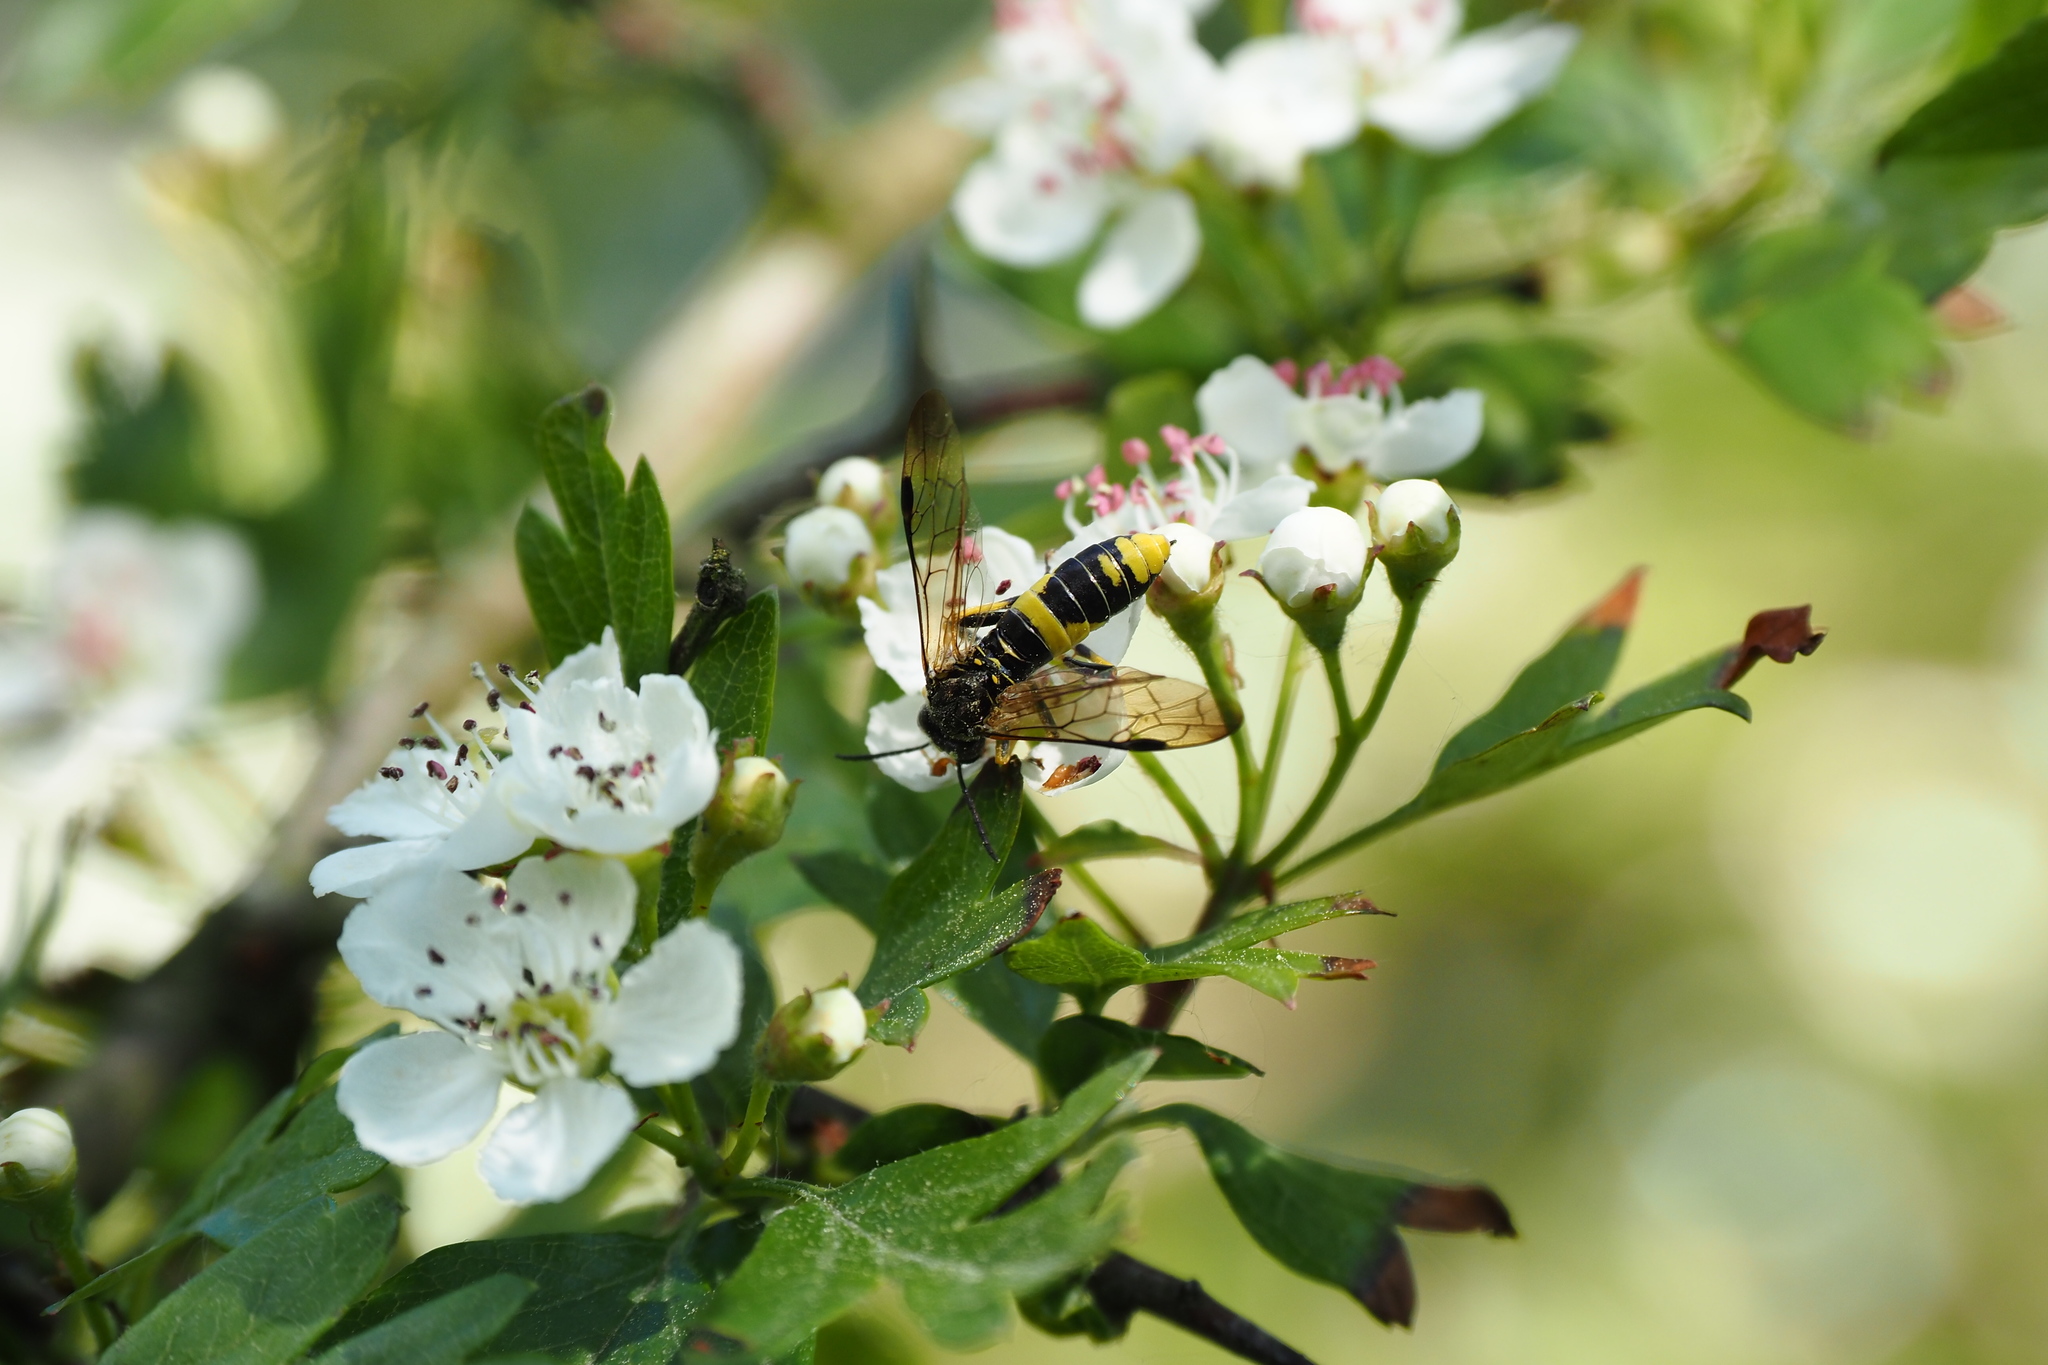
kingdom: Animalia
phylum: Arthropoda
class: Insecta
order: Hymenoptera
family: Tenthredinidae
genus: Tenthredo
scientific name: Tenthredo temula
